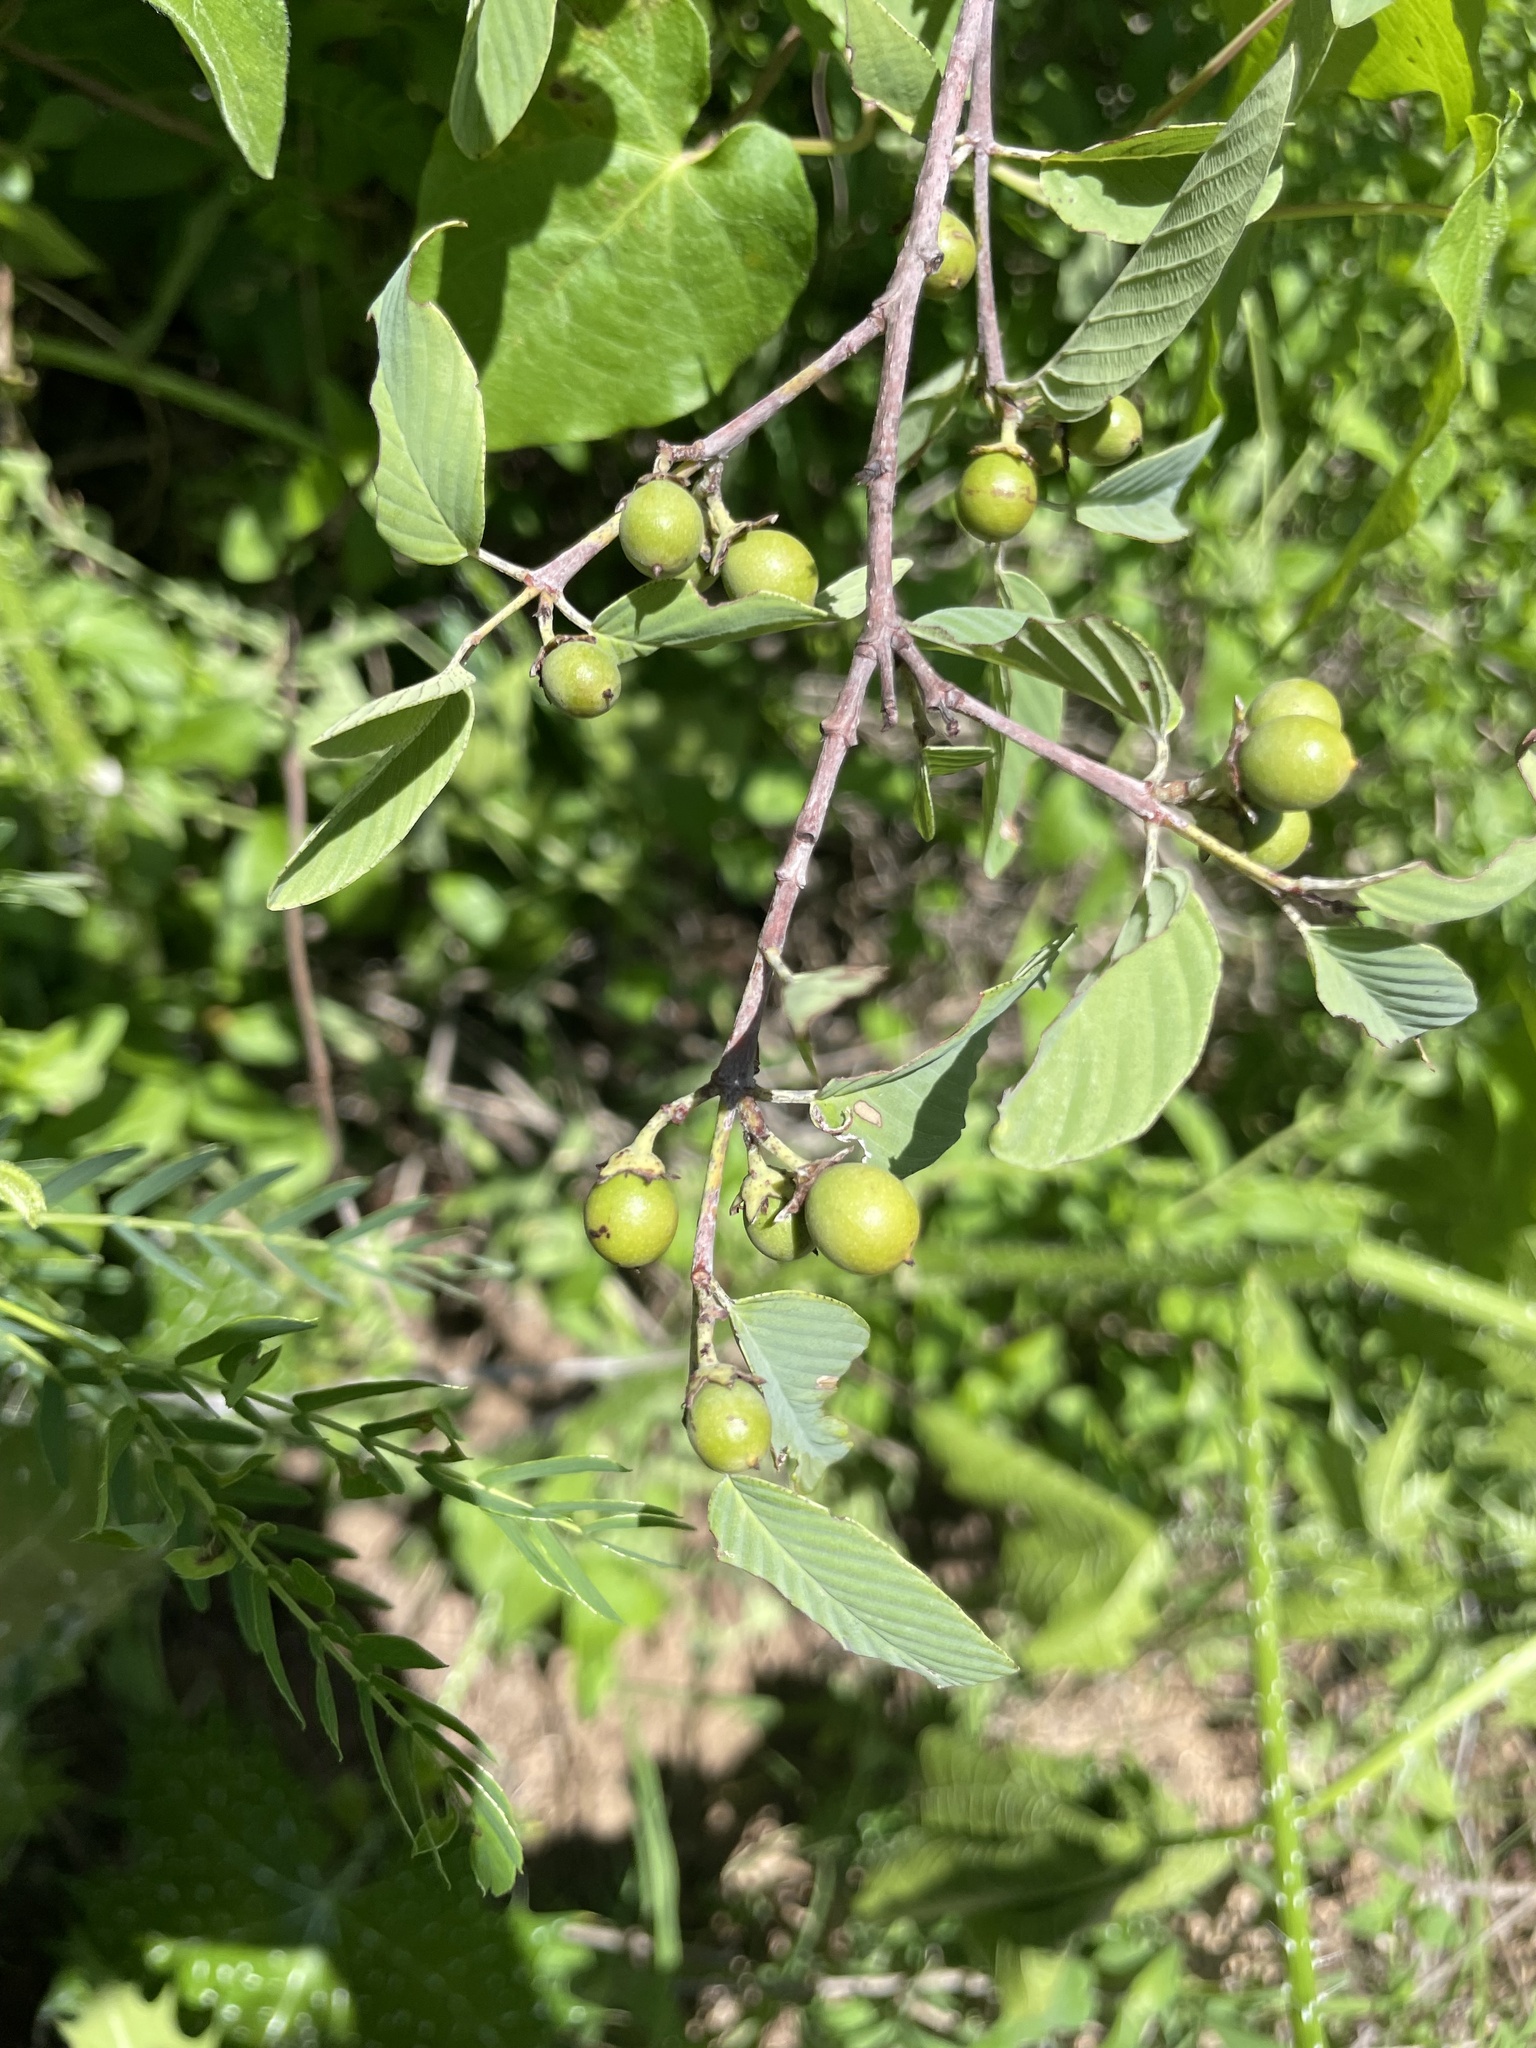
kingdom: Plantae
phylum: Tracheophyta
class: Magnoliopsida
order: Rosales
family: Rhamnaceae
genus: Gouania
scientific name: Gouania rosei
